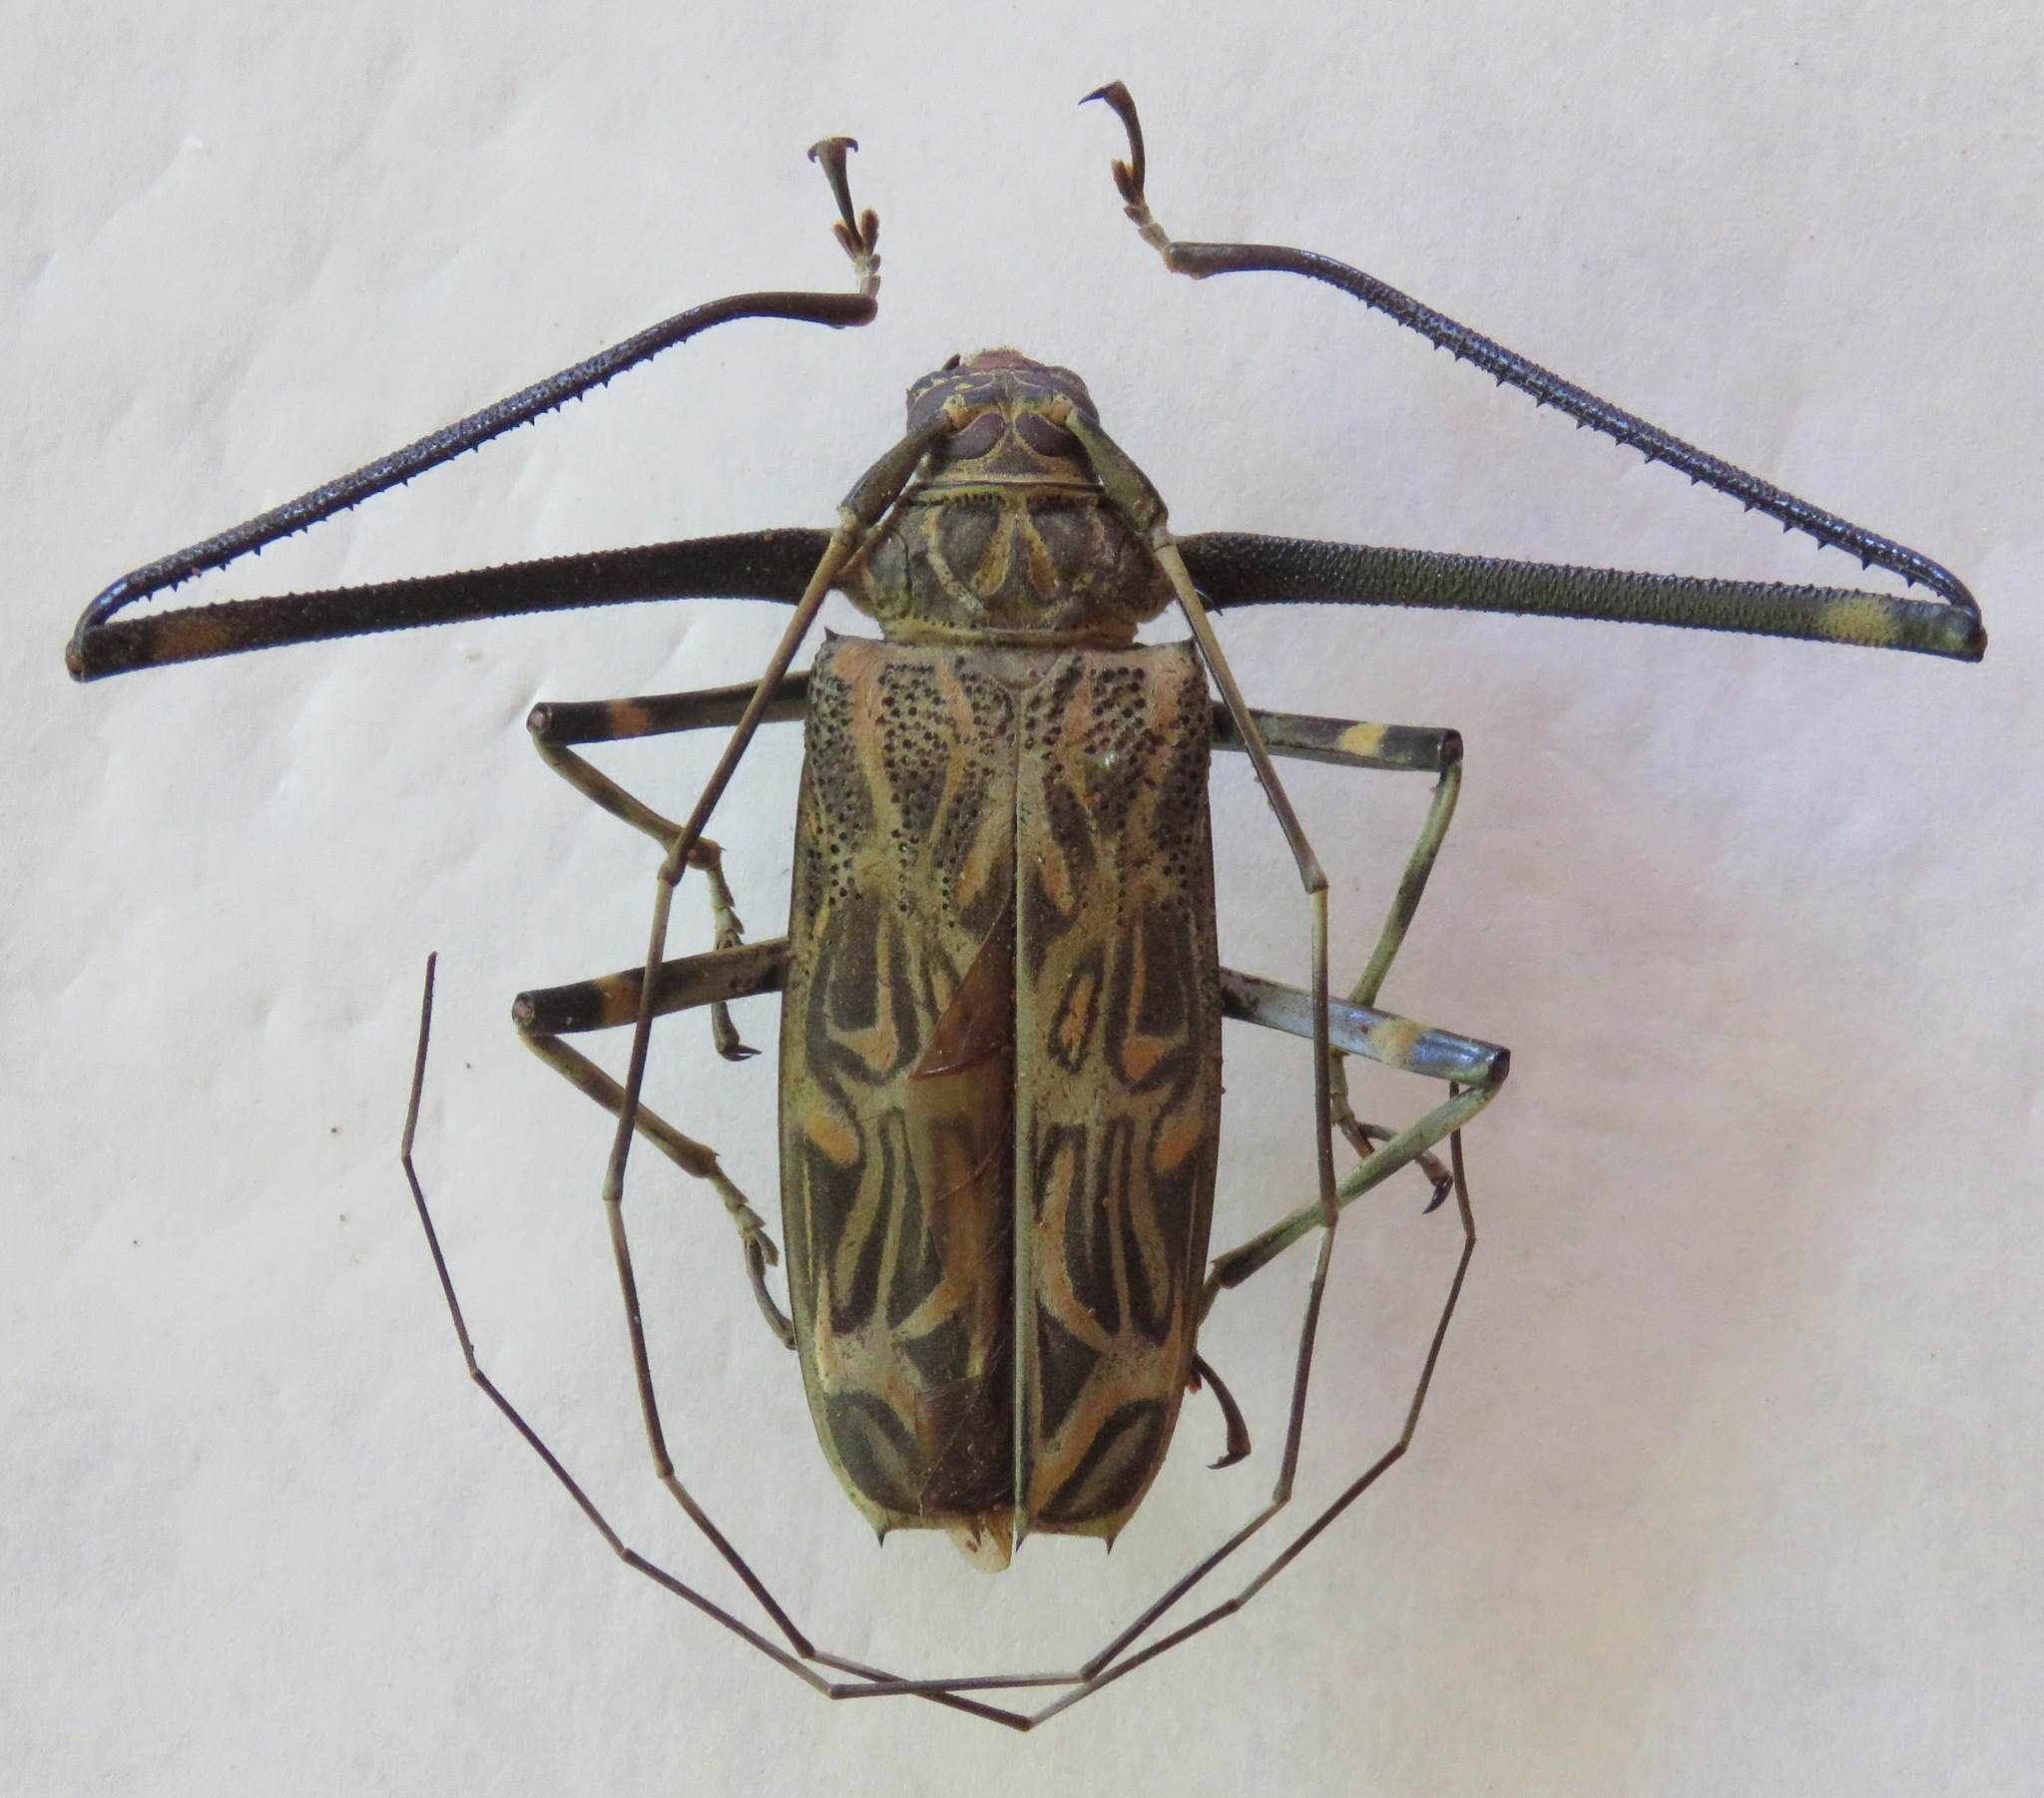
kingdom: Animalia
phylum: Arthropoda
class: Insecta
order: Coleoptera
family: Cerambycidae
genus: Acrocinus
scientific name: Acrocinus longimanus
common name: Arlequin
